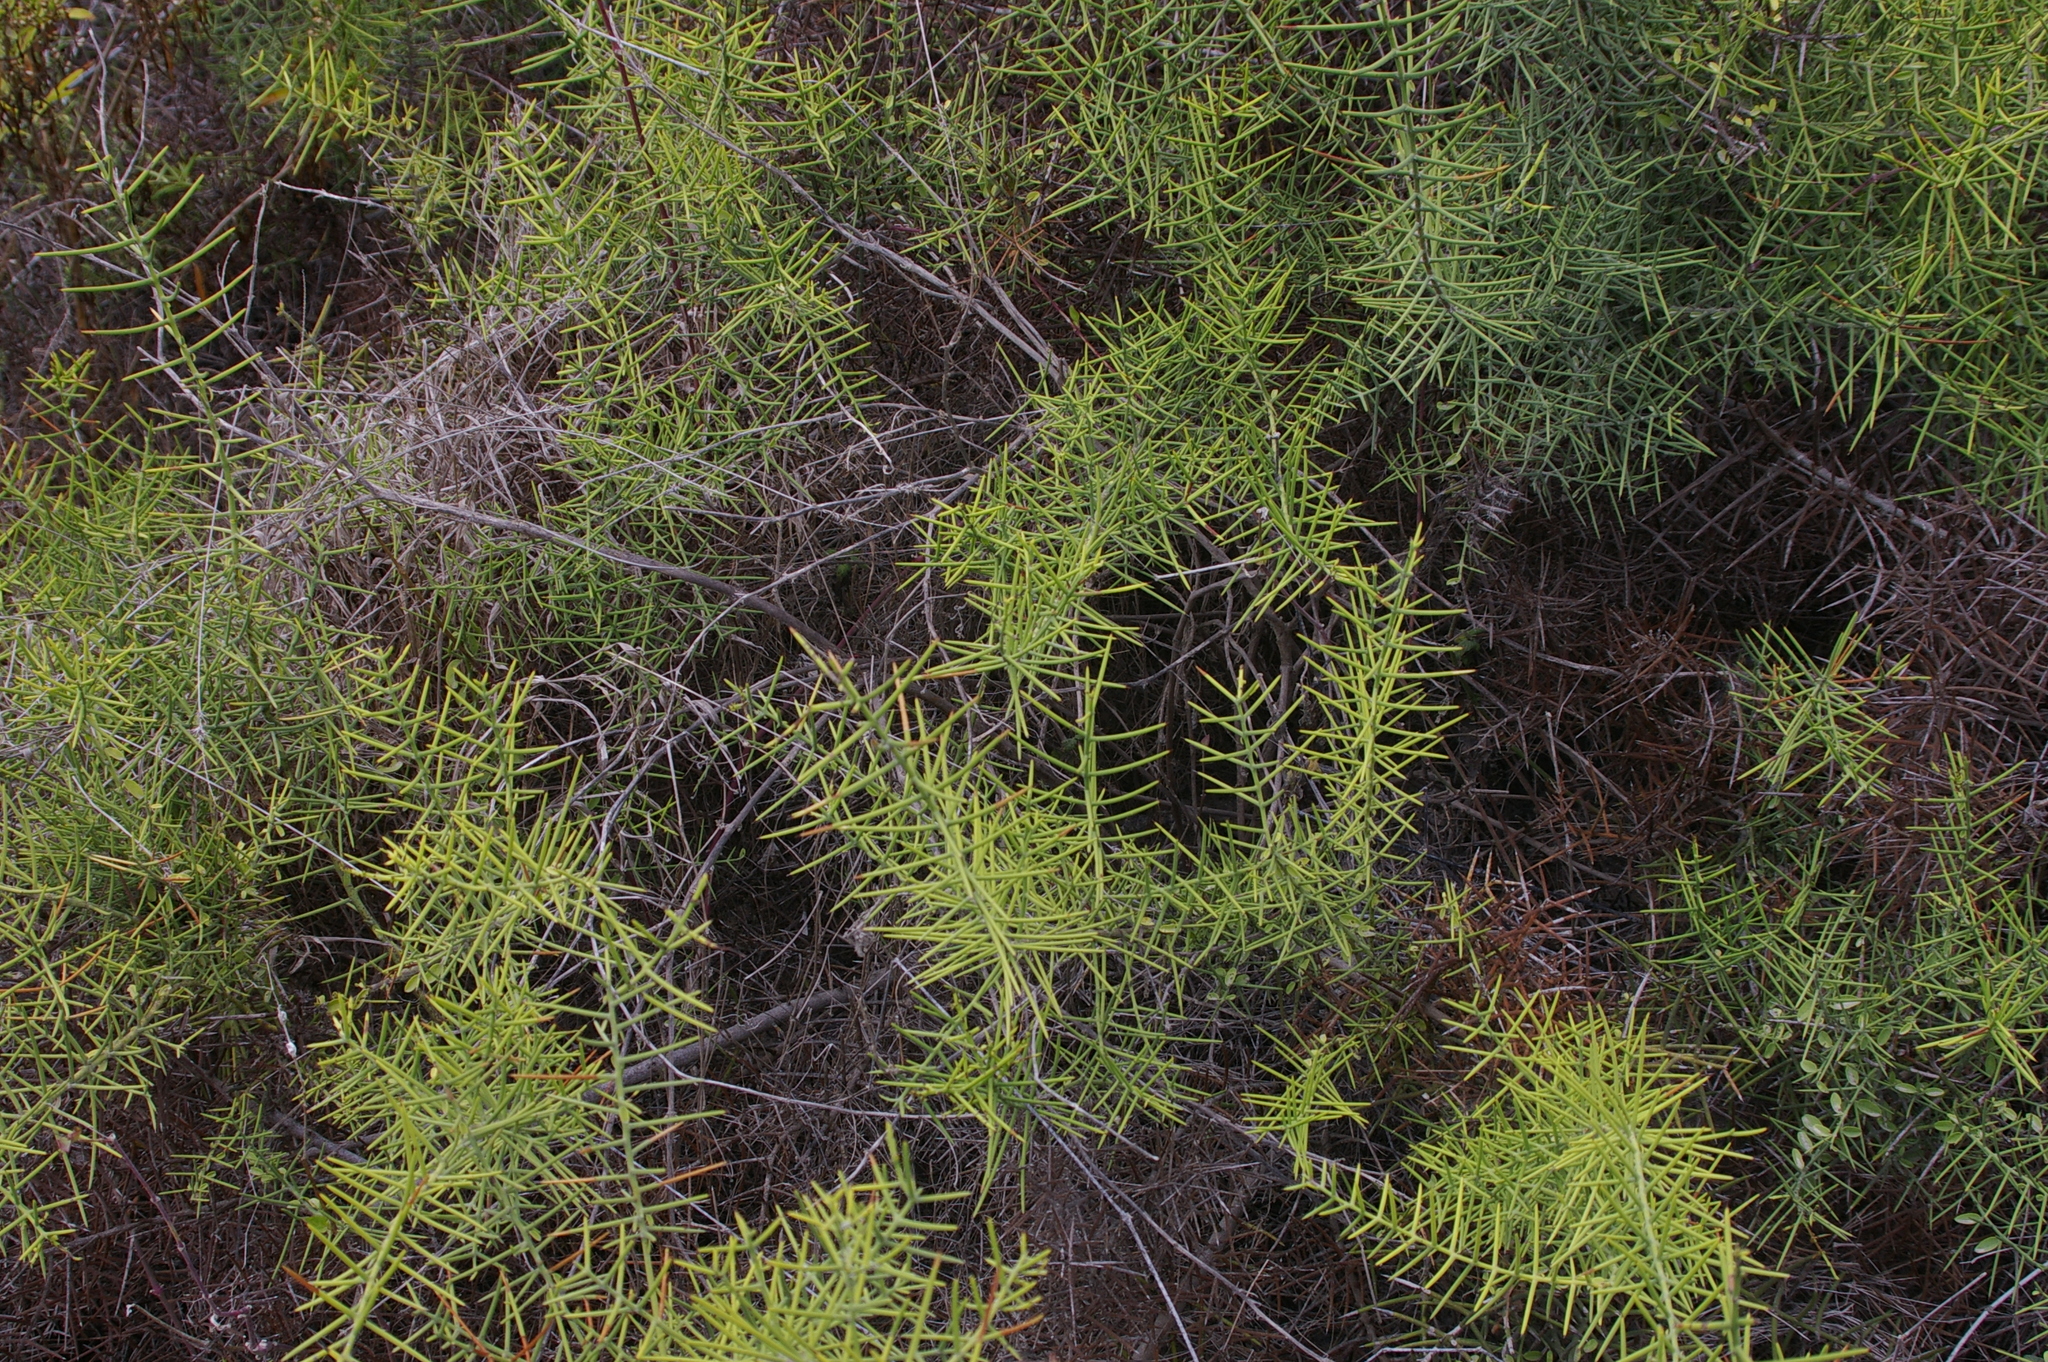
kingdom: Plantae
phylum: Tracheophyta
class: Magnoliopsida
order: Rosales
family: Rhamnaceae
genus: Scutia
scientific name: Scutia spicata
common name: Spiny bush
